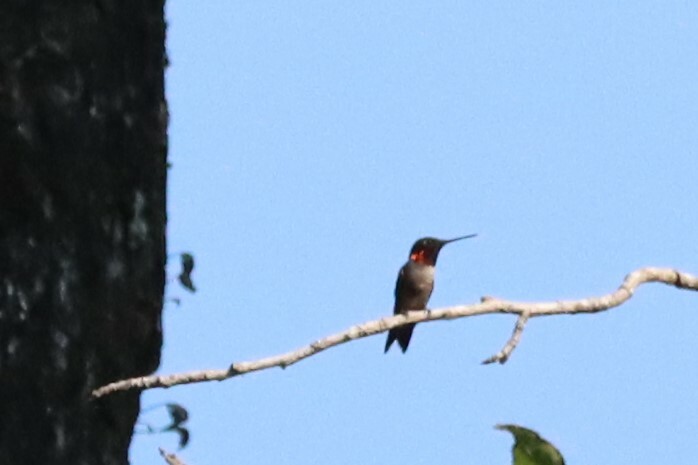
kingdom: Animalia
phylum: Chordata
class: Aves
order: Apodiformes
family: Trochilidae
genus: Archilochus
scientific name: Archilochus colubris
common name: Ruby-throated hummingbird
